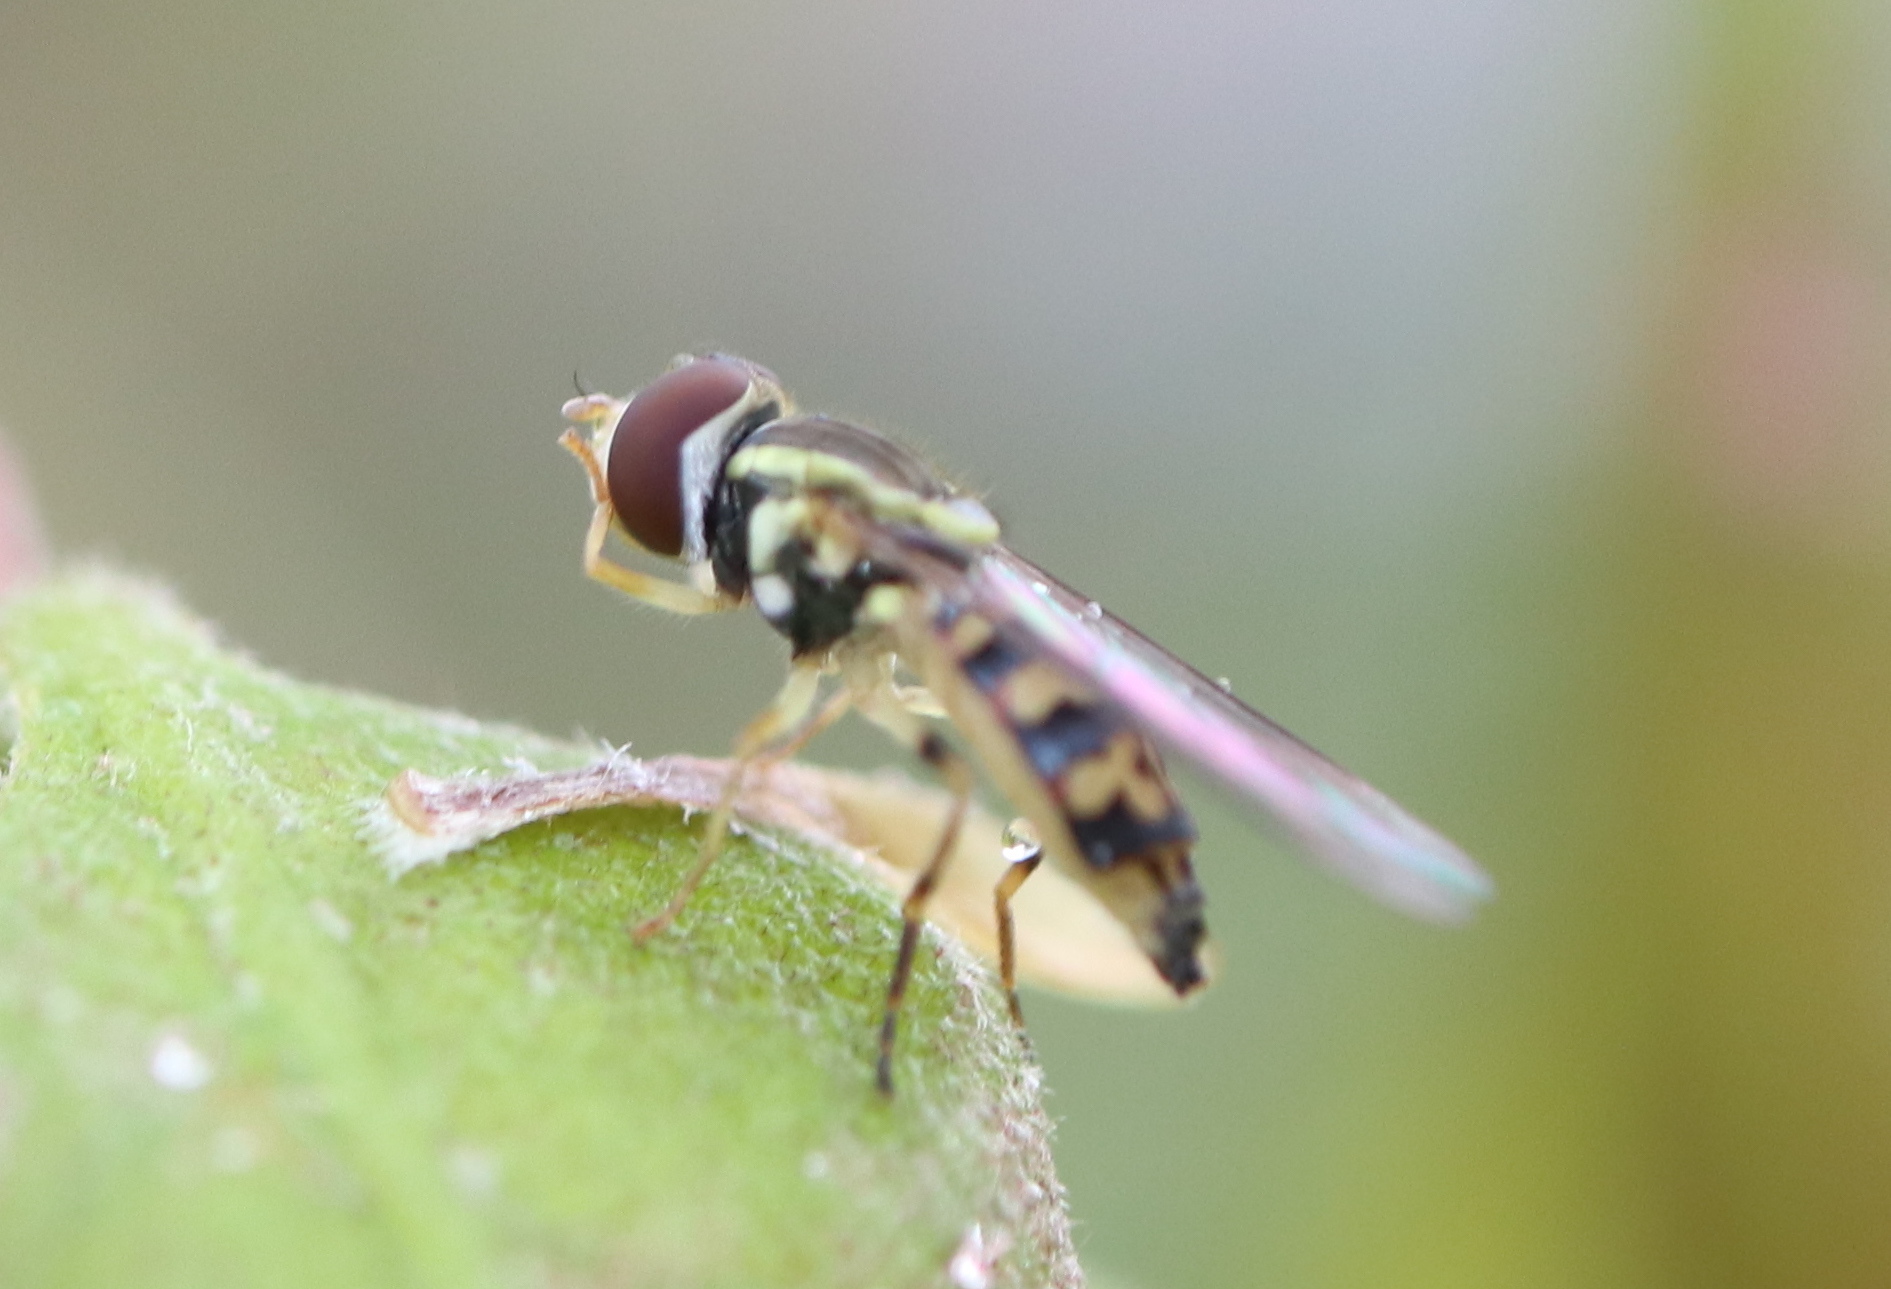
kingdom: Animalia
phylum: Arthropoda
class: Insecta
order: Diptera
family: Syrphidae
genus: Toxomerus
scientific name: Toxomerus geminatus
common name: Eastern calligrapher
